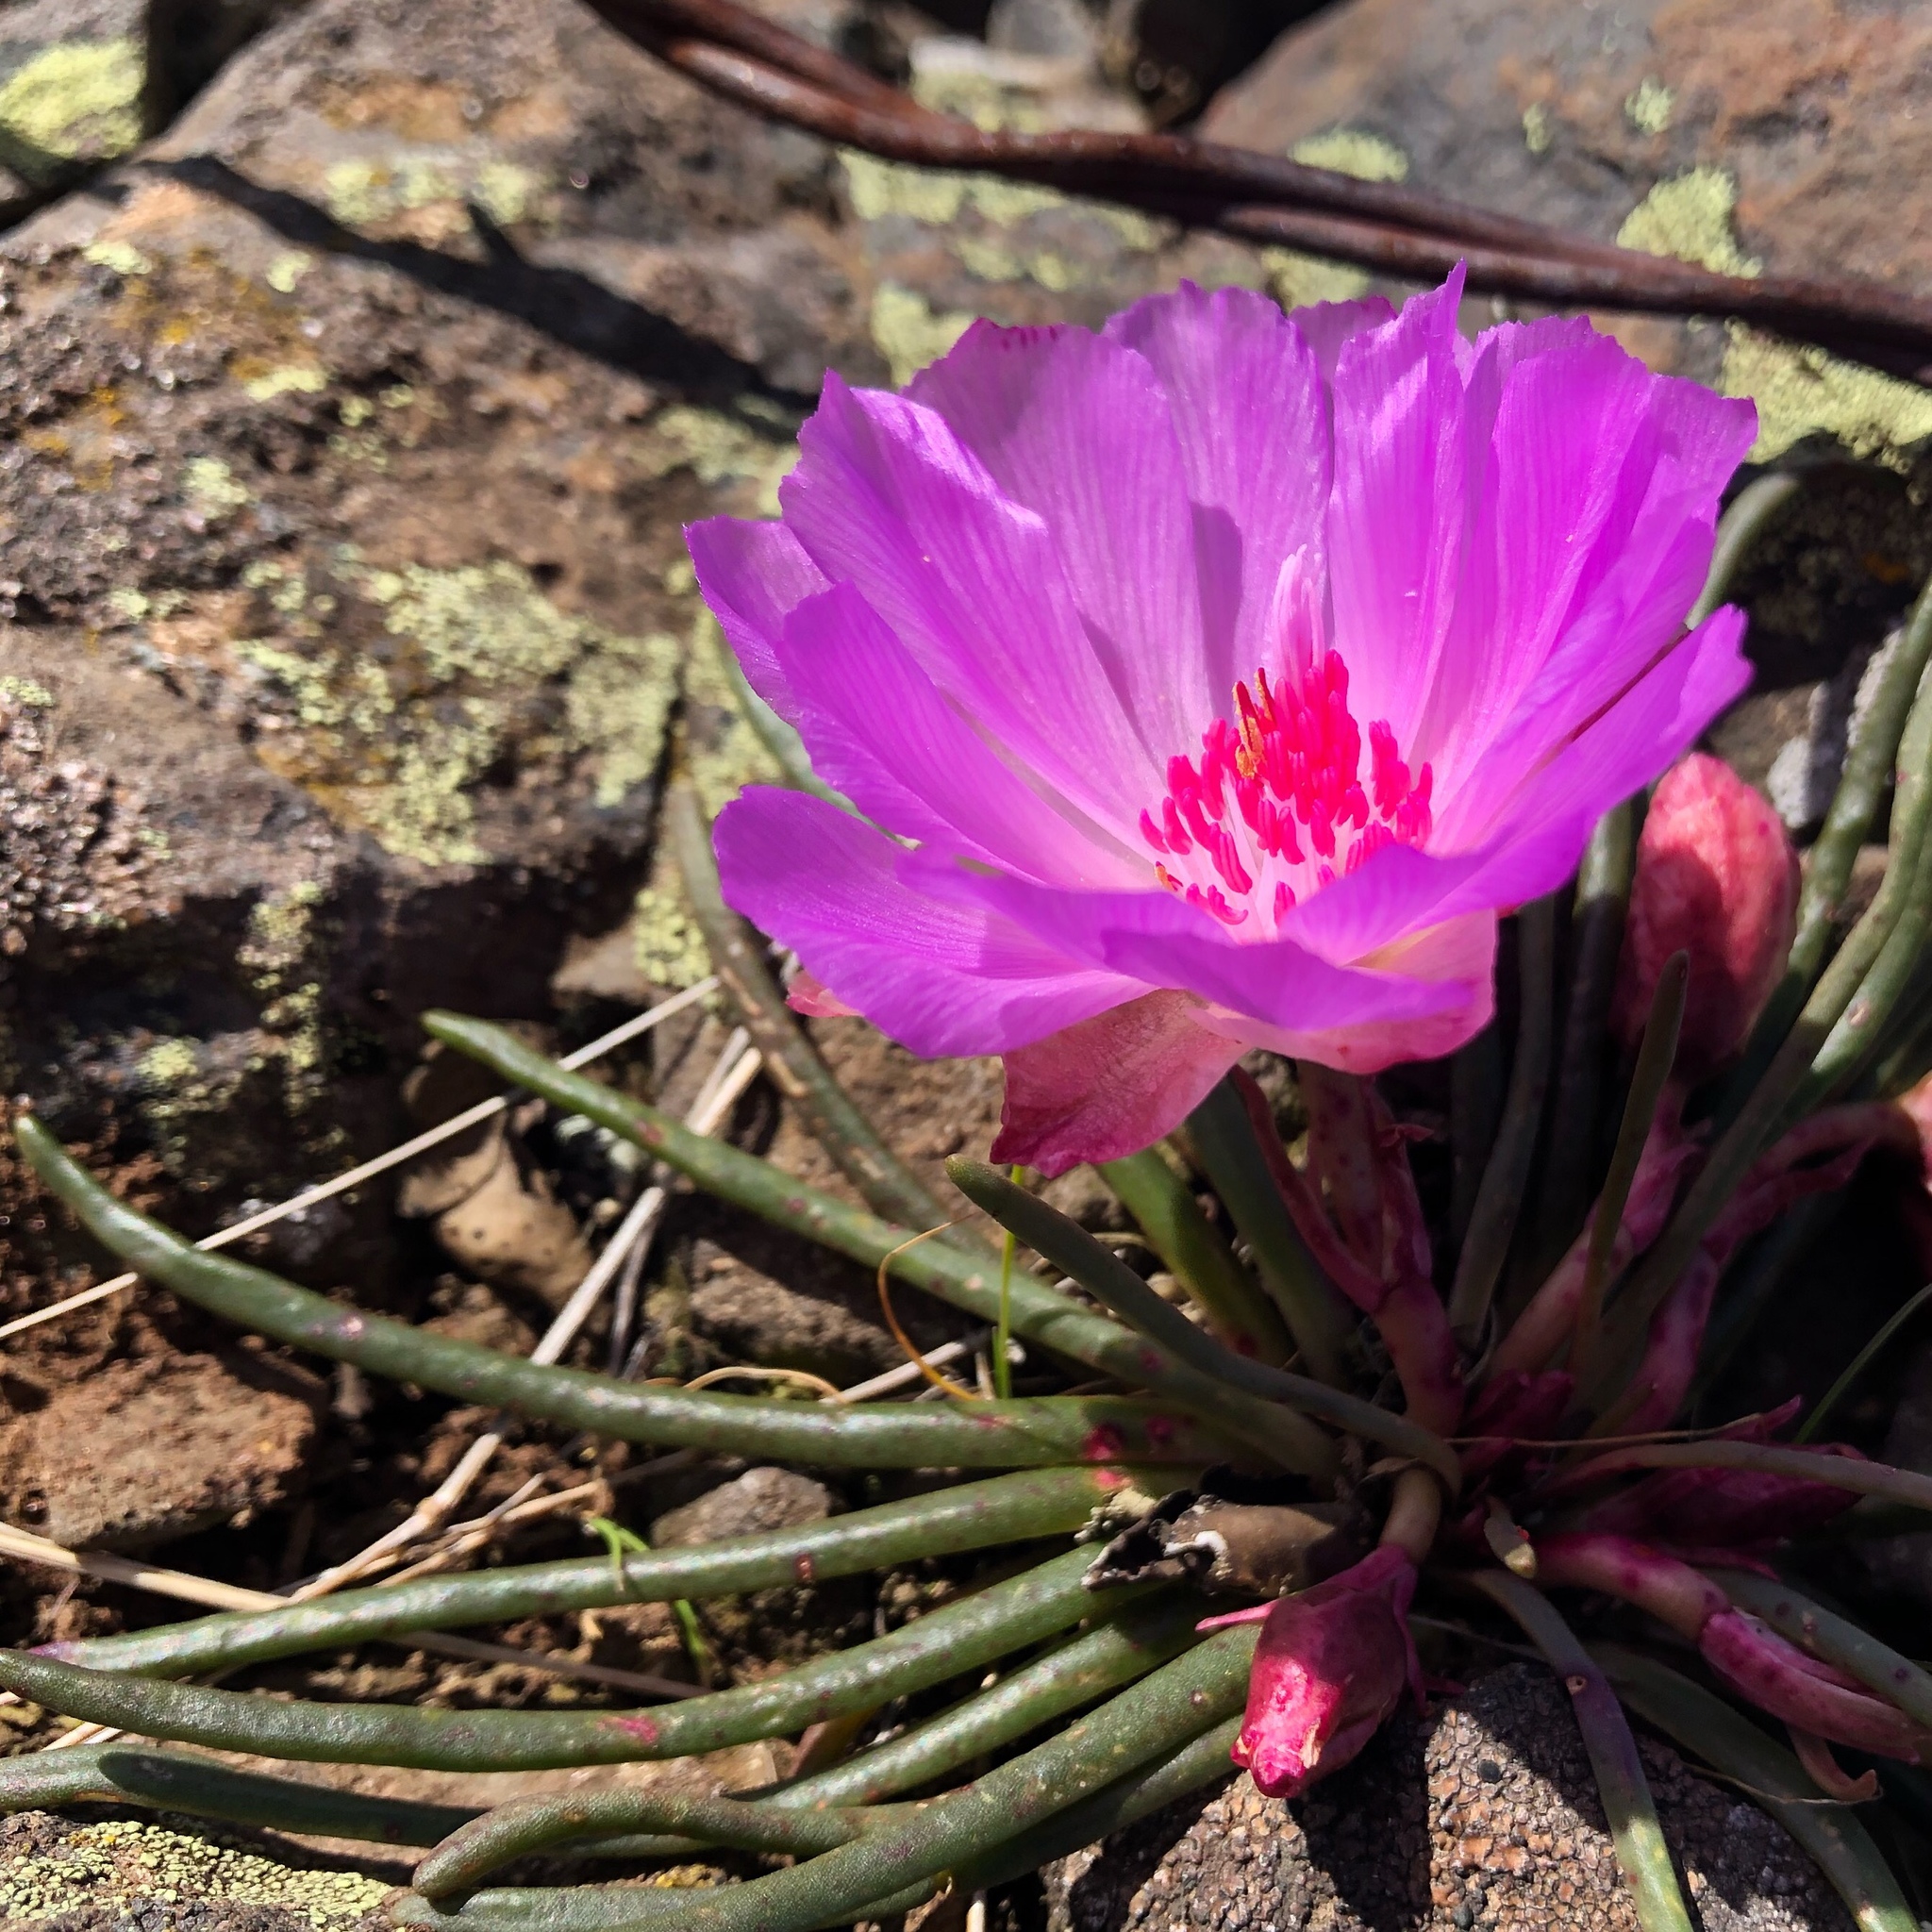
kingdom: Plantae
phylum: Tracheophyta
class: Magnoliopsida
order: Caryophyllales
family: Montiaceae
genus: Lewisia
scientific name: Lewisia rediviva
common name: Bitter-root
